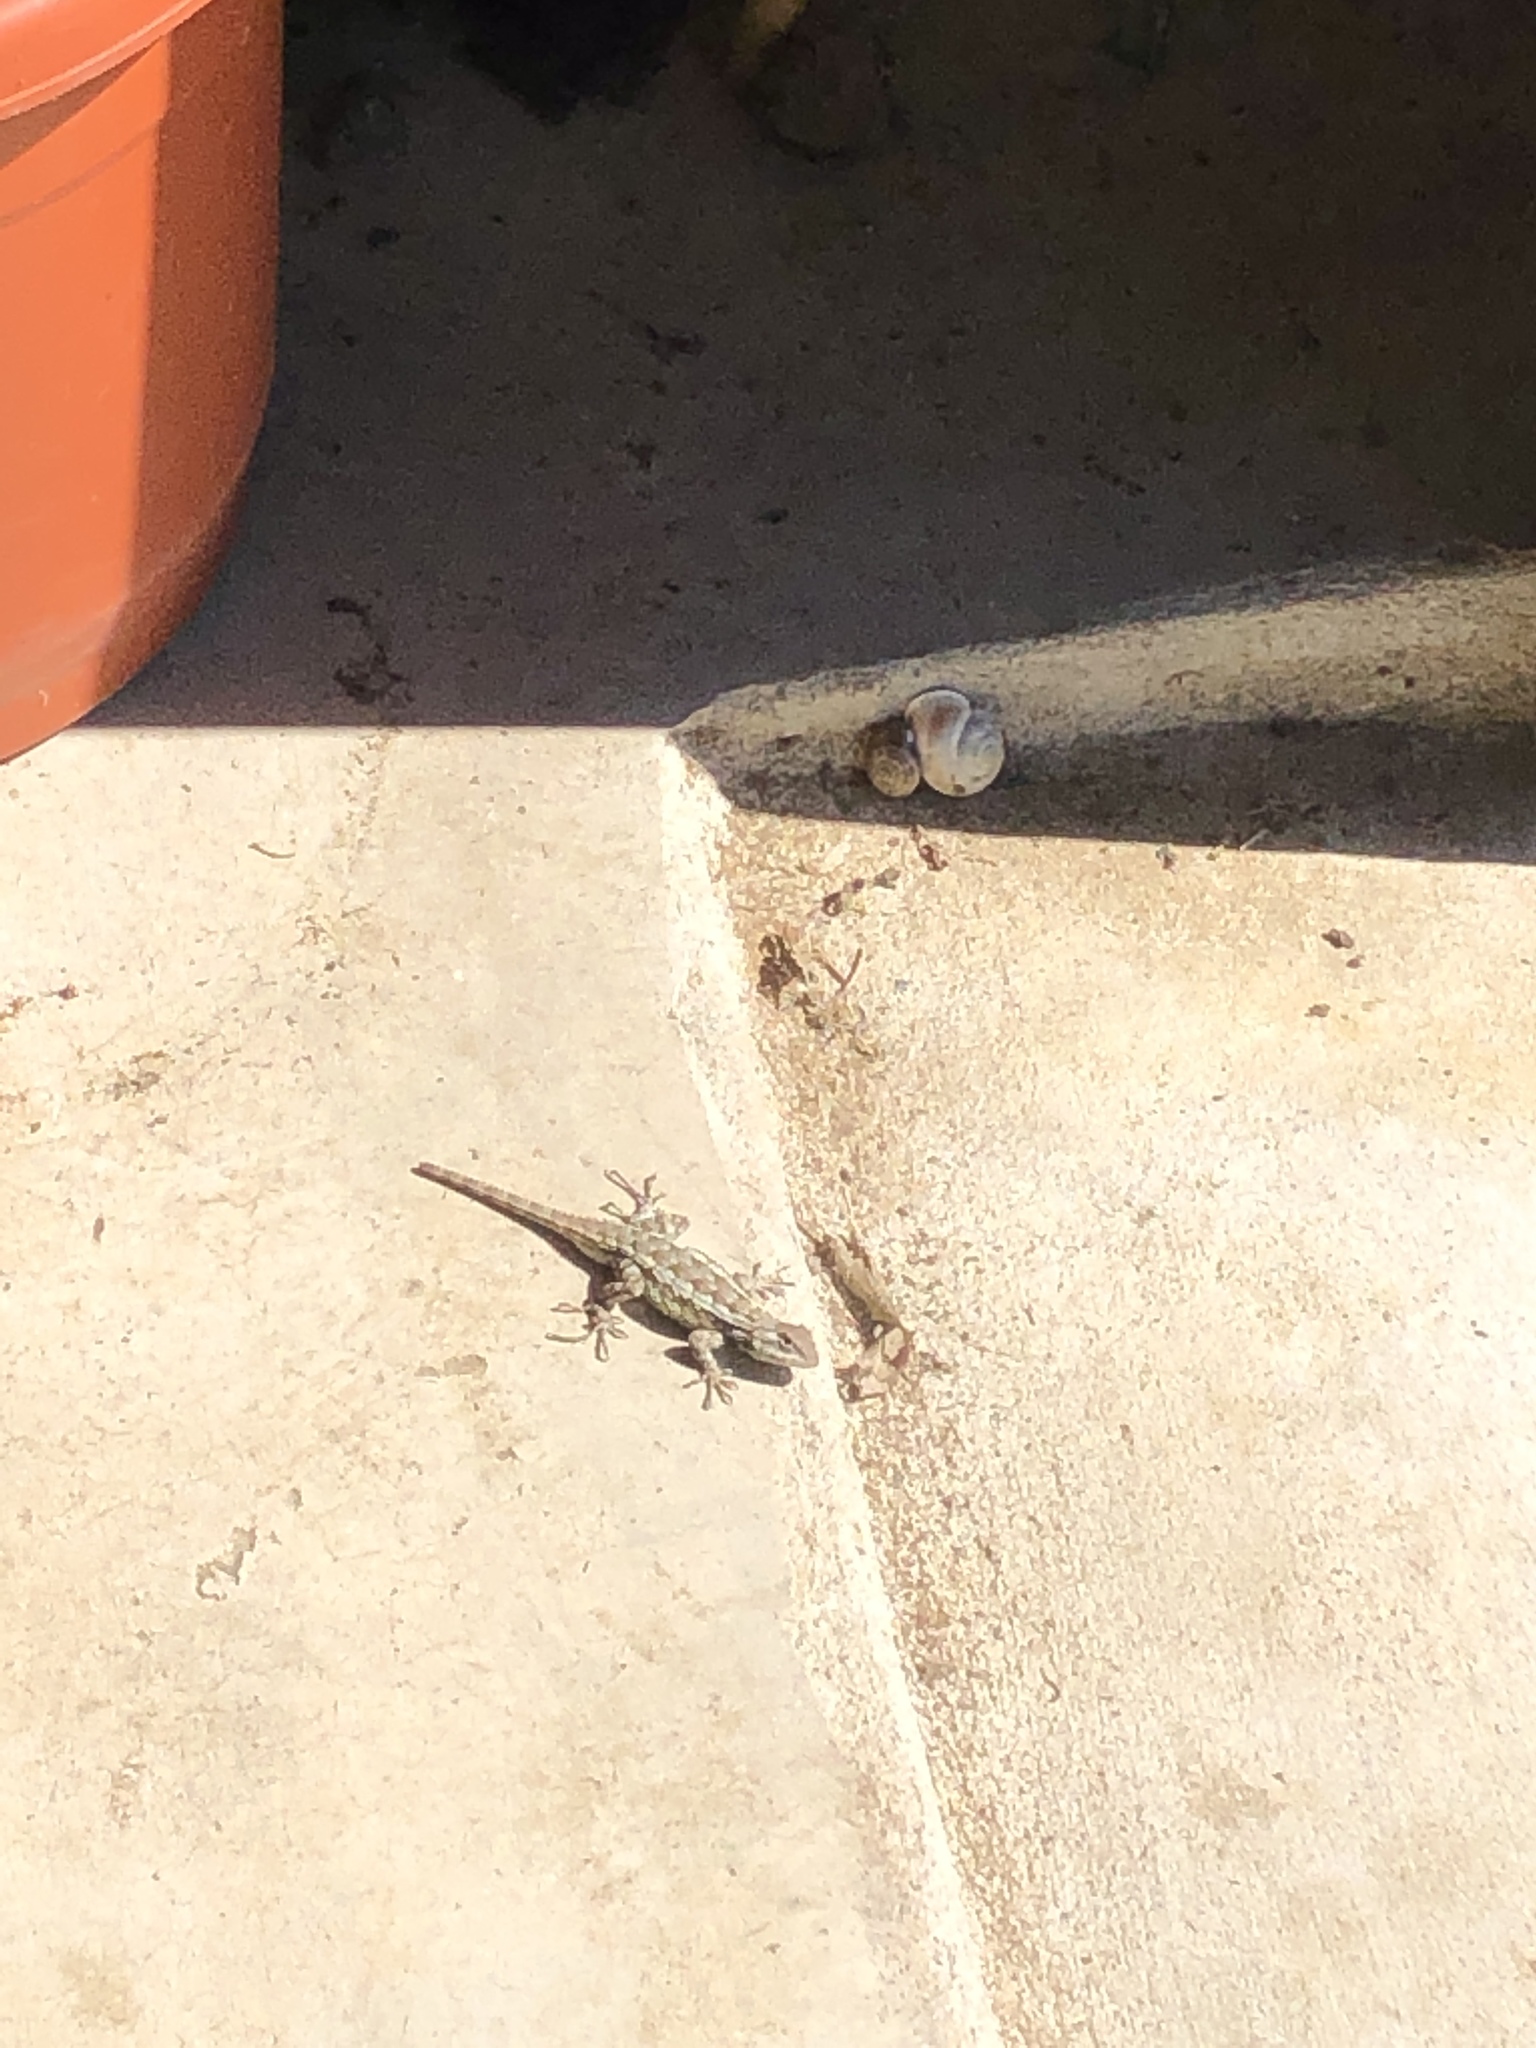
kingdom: Animalia
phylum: Chordata
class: Squamata
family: Phrynosomatidae
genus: Sceloporus
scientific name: Sceloporus olivaceus
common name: Texas spiny lizard
